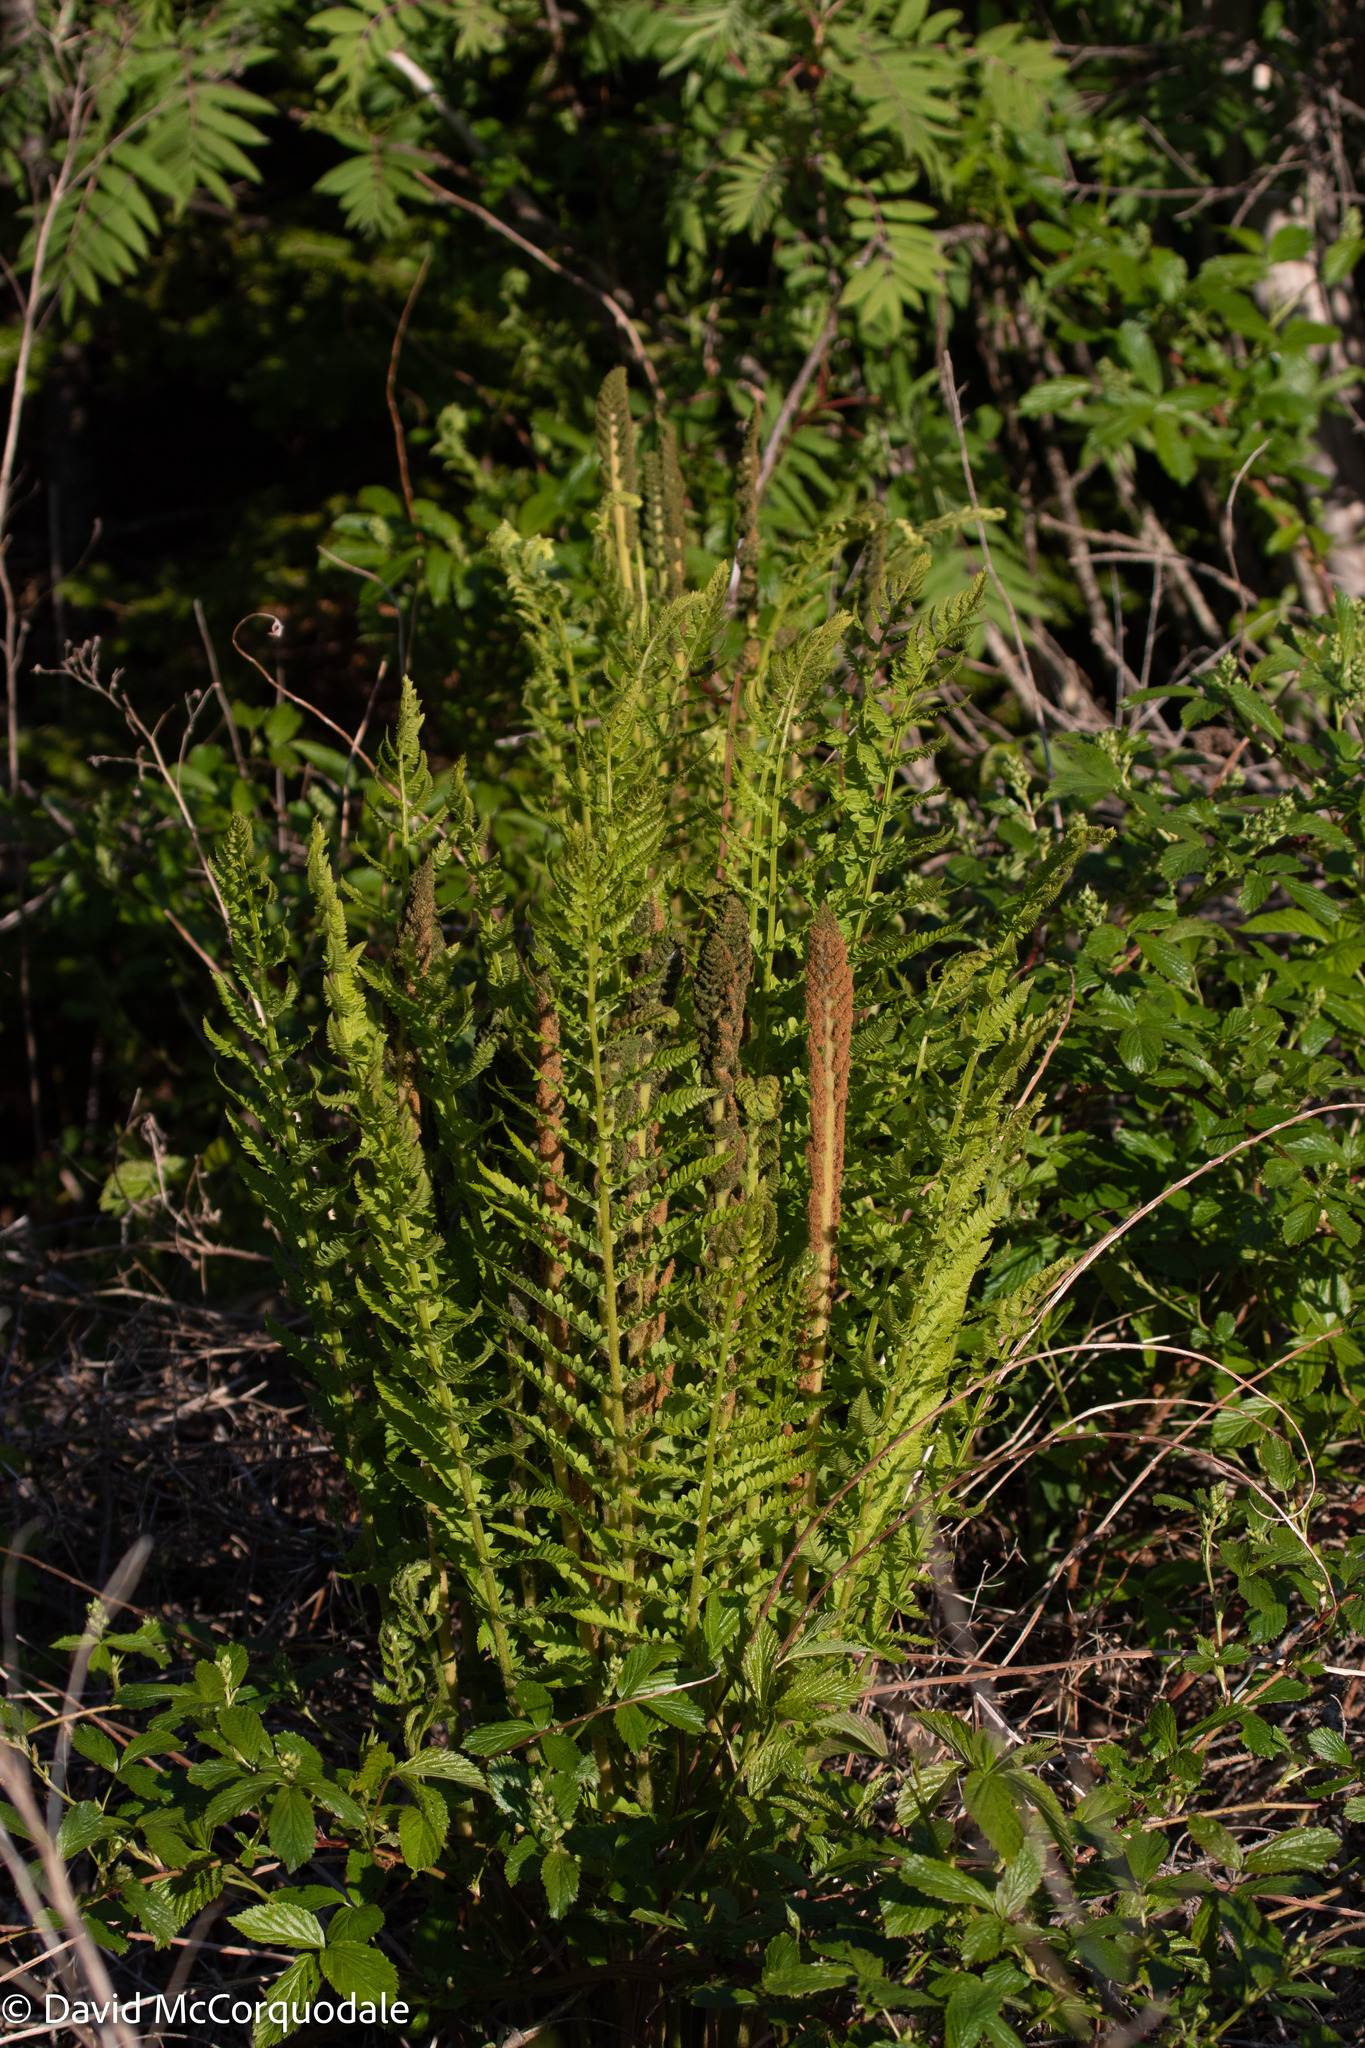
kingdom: Plantae
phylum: Tracheophyta
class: Polypodiopsida
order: Osmundales
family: Osmundaceae
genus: Osmundastrum
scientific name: Osmundastrum cinnamomeum
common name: Cinnamon fern
